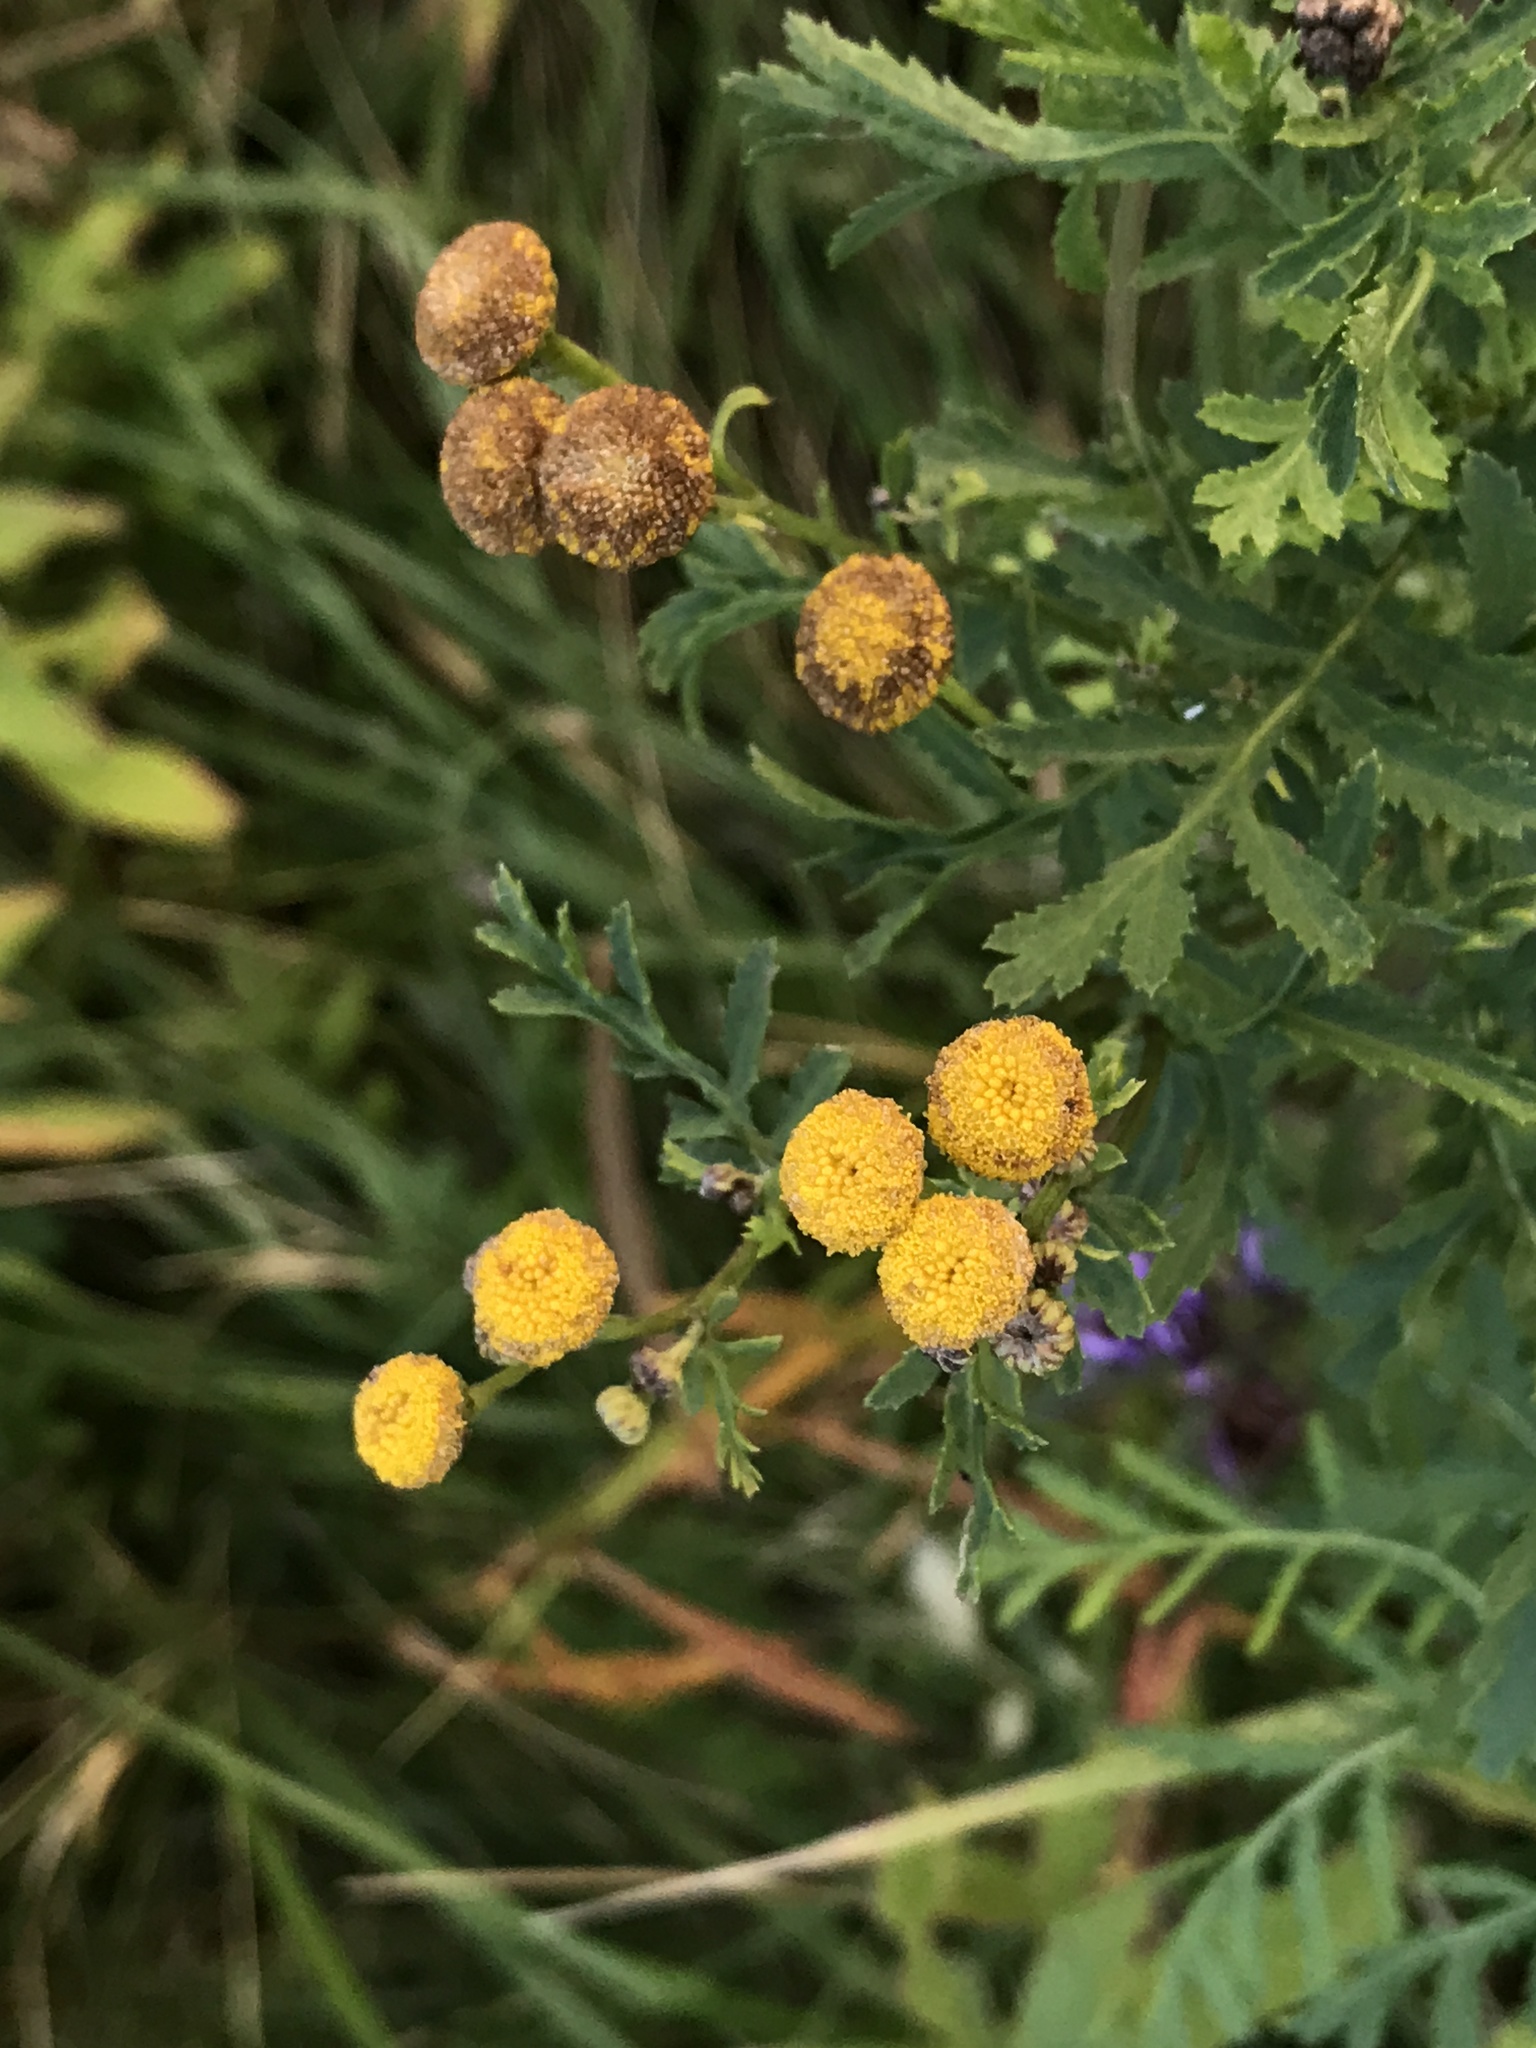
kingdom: Plantae
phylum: Tracheophyta
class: Magnoliopsida
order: Asterales
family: Asteraceae
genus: Tanacetum
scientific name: Tanacetum vulgare
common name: Common tansy
